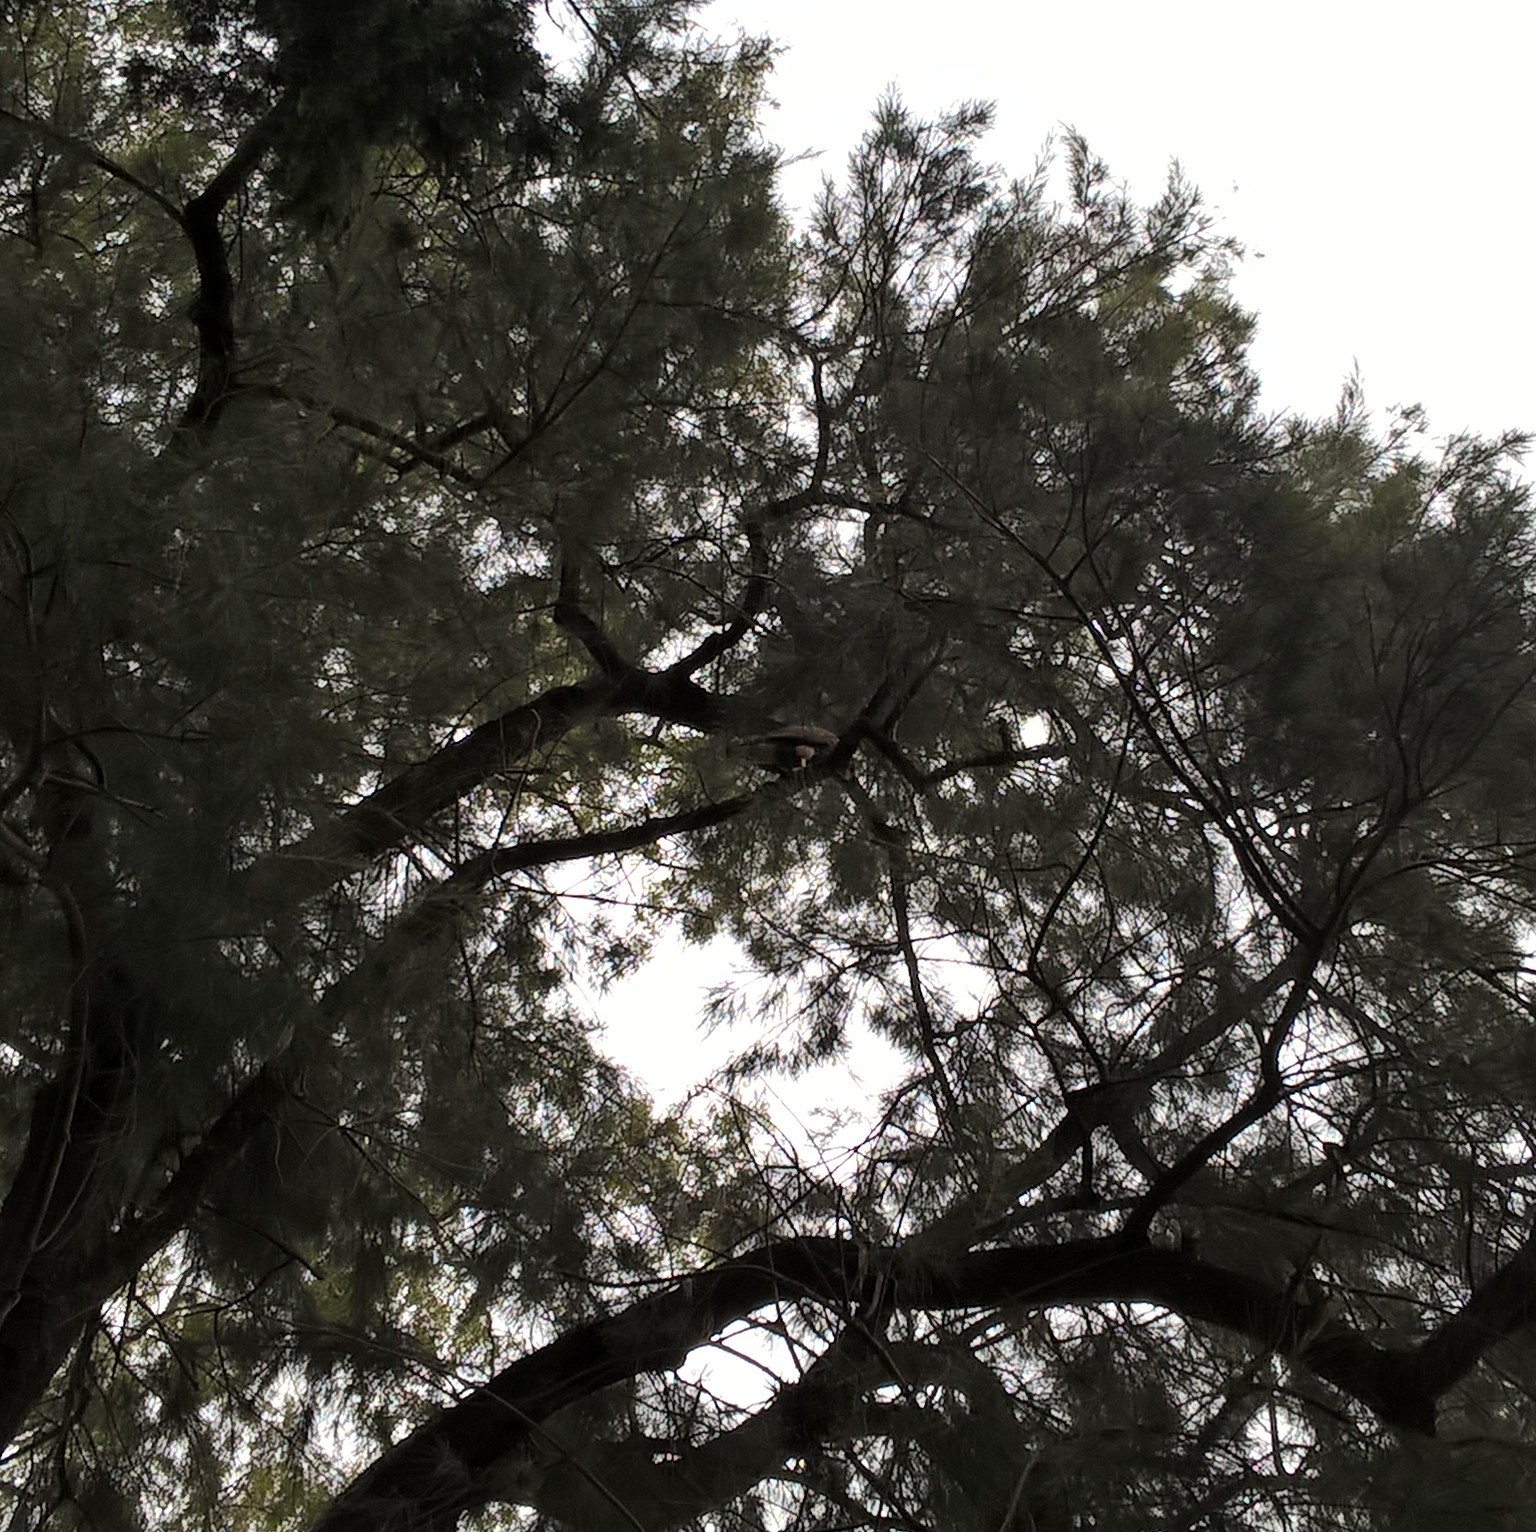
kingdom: Animalia
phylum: Chordata
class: Aves
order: Accipitriformes
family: Accipitridae
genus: Parabuteo
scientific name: Parabuteo unicinctus
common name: Harris's hawk
